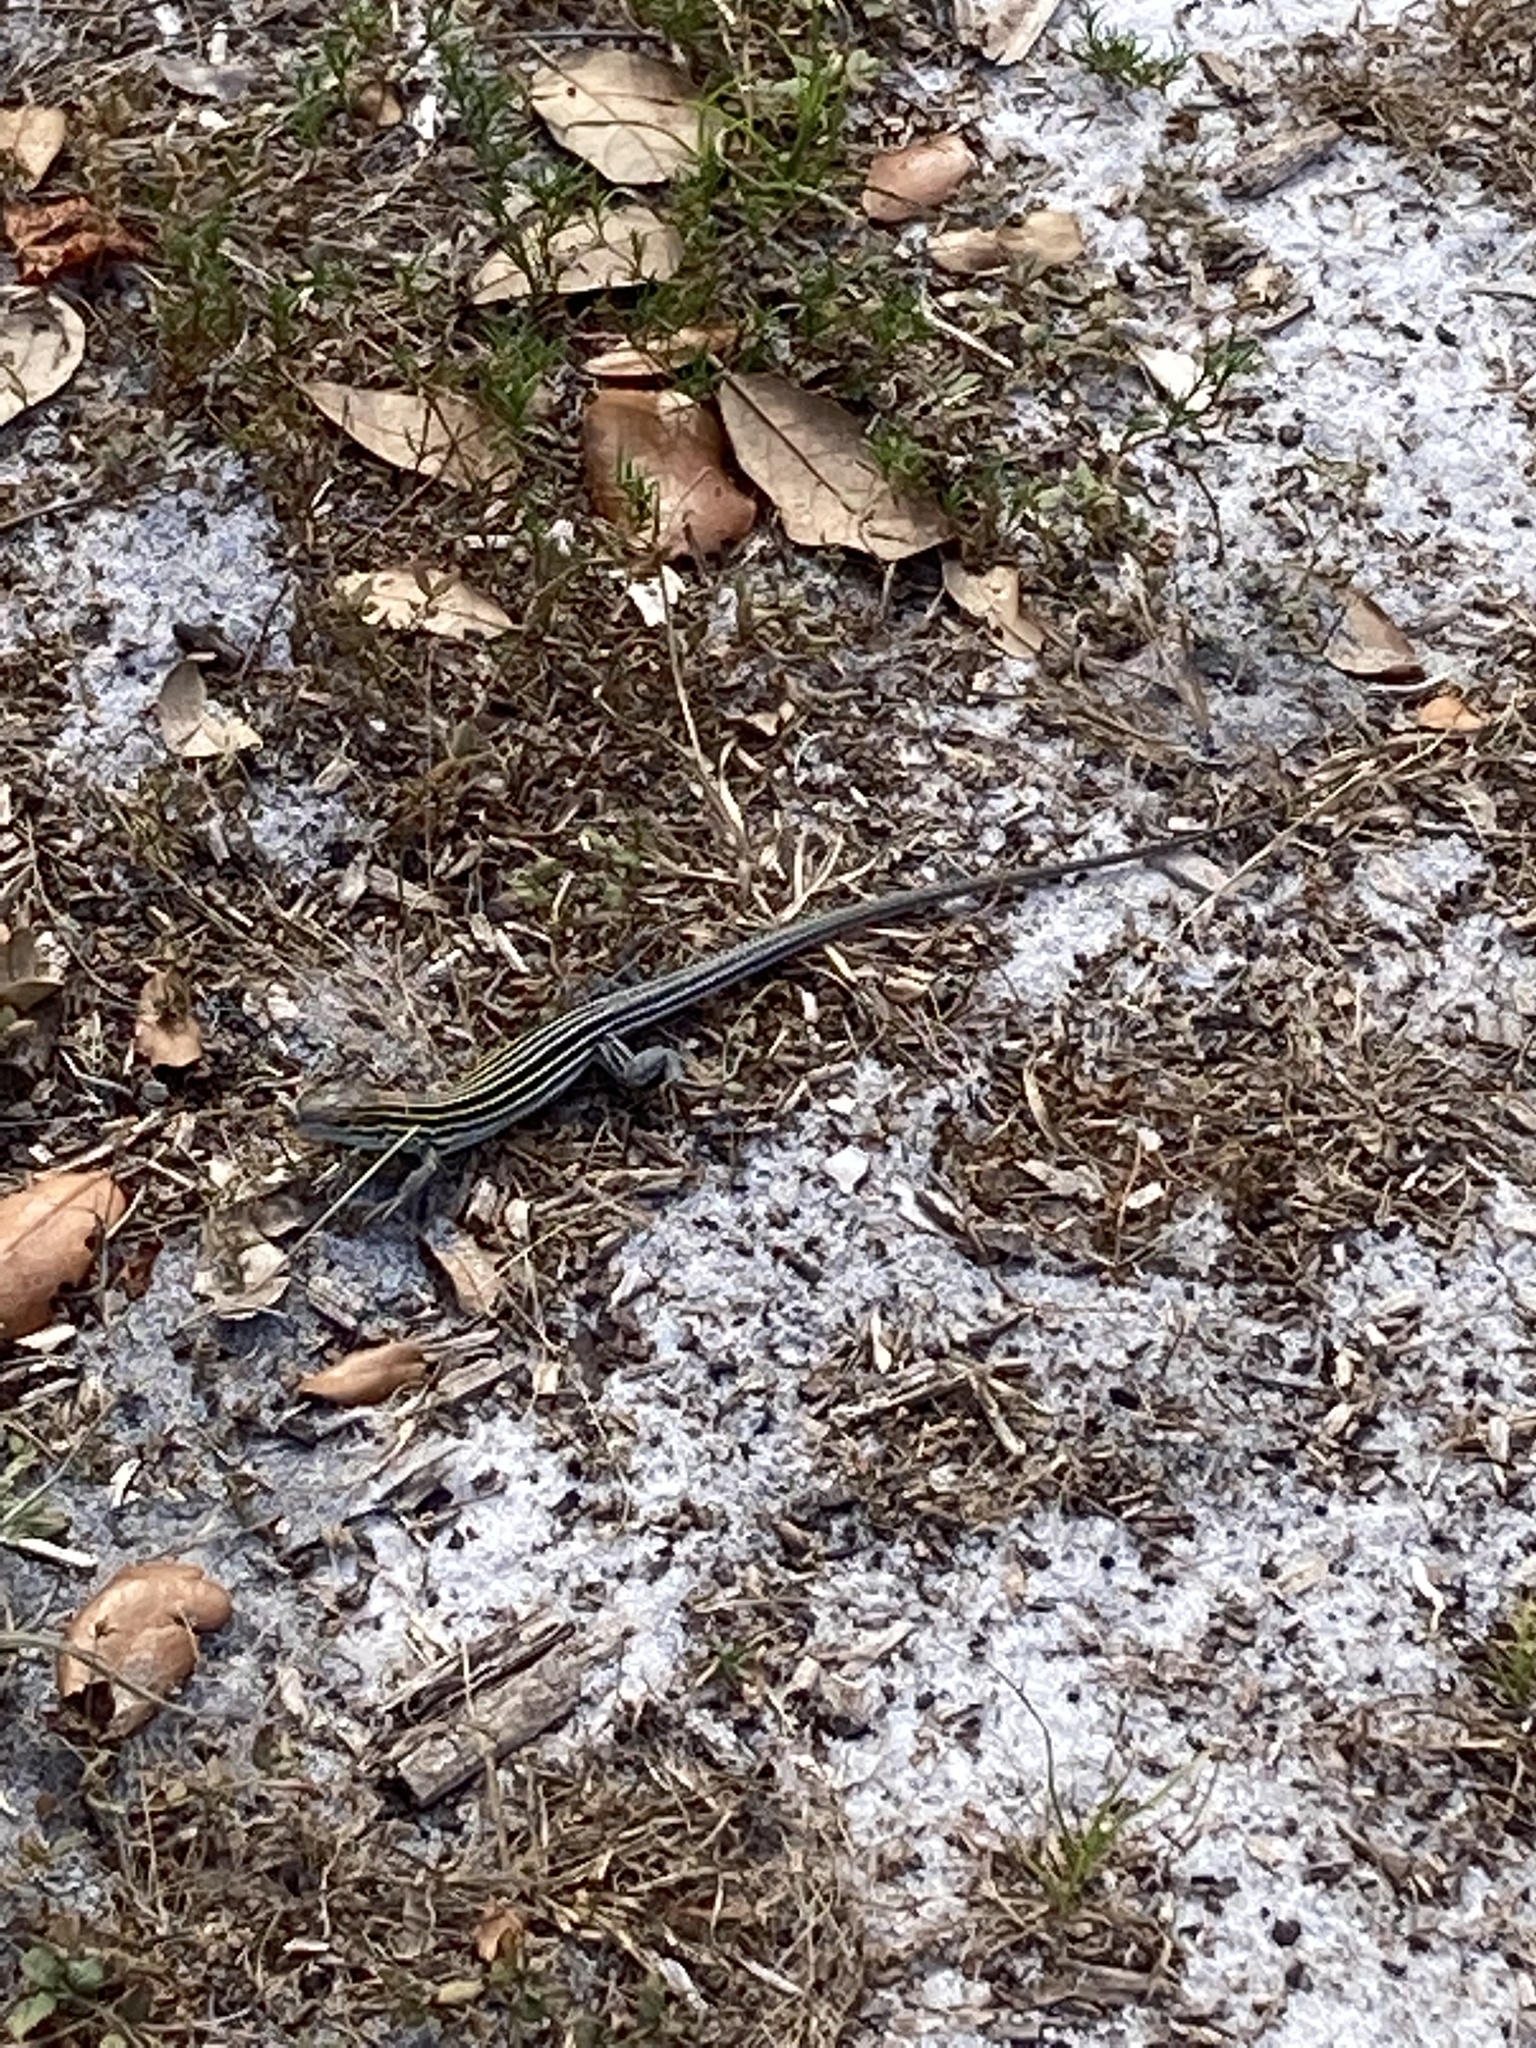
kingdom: Animalia
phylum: Chordata
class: Squamata
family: Teiidae
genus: Aspidoscelis
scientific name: Aspidoscelis sexlineatus
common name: Six-lined racerunner
